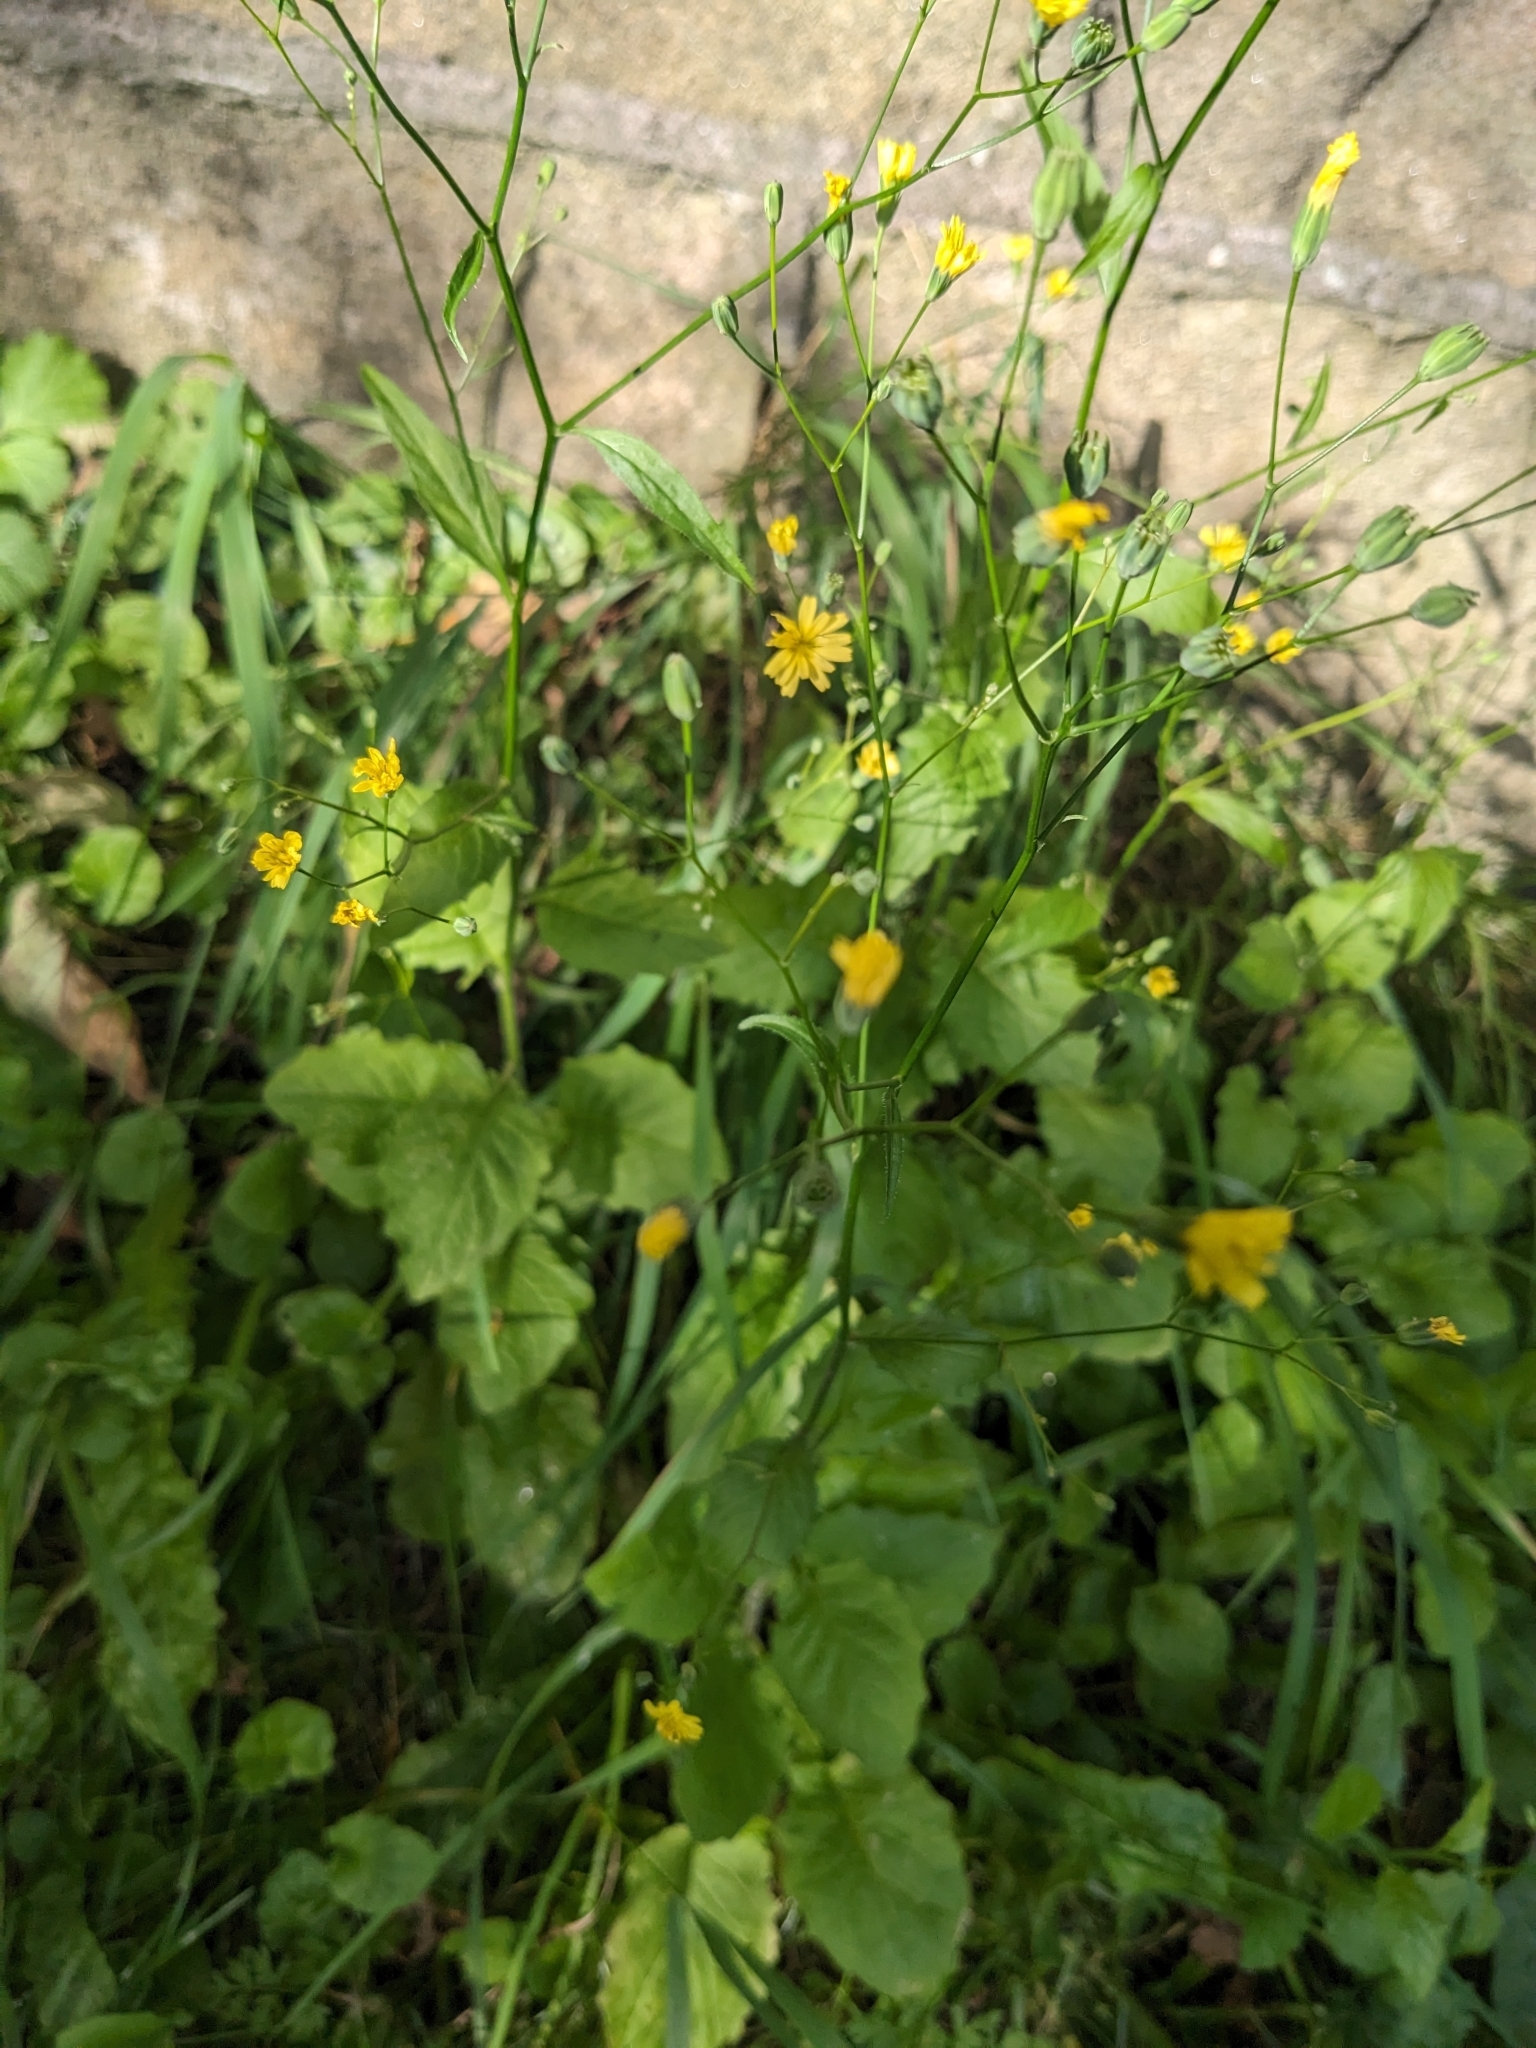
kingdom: Plantae
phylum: Tracheophyta
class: Magnoliopsida
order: Asterales
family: Asteraceae
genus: Lapsana
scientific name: Lapsana communis
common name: Nipplewort
